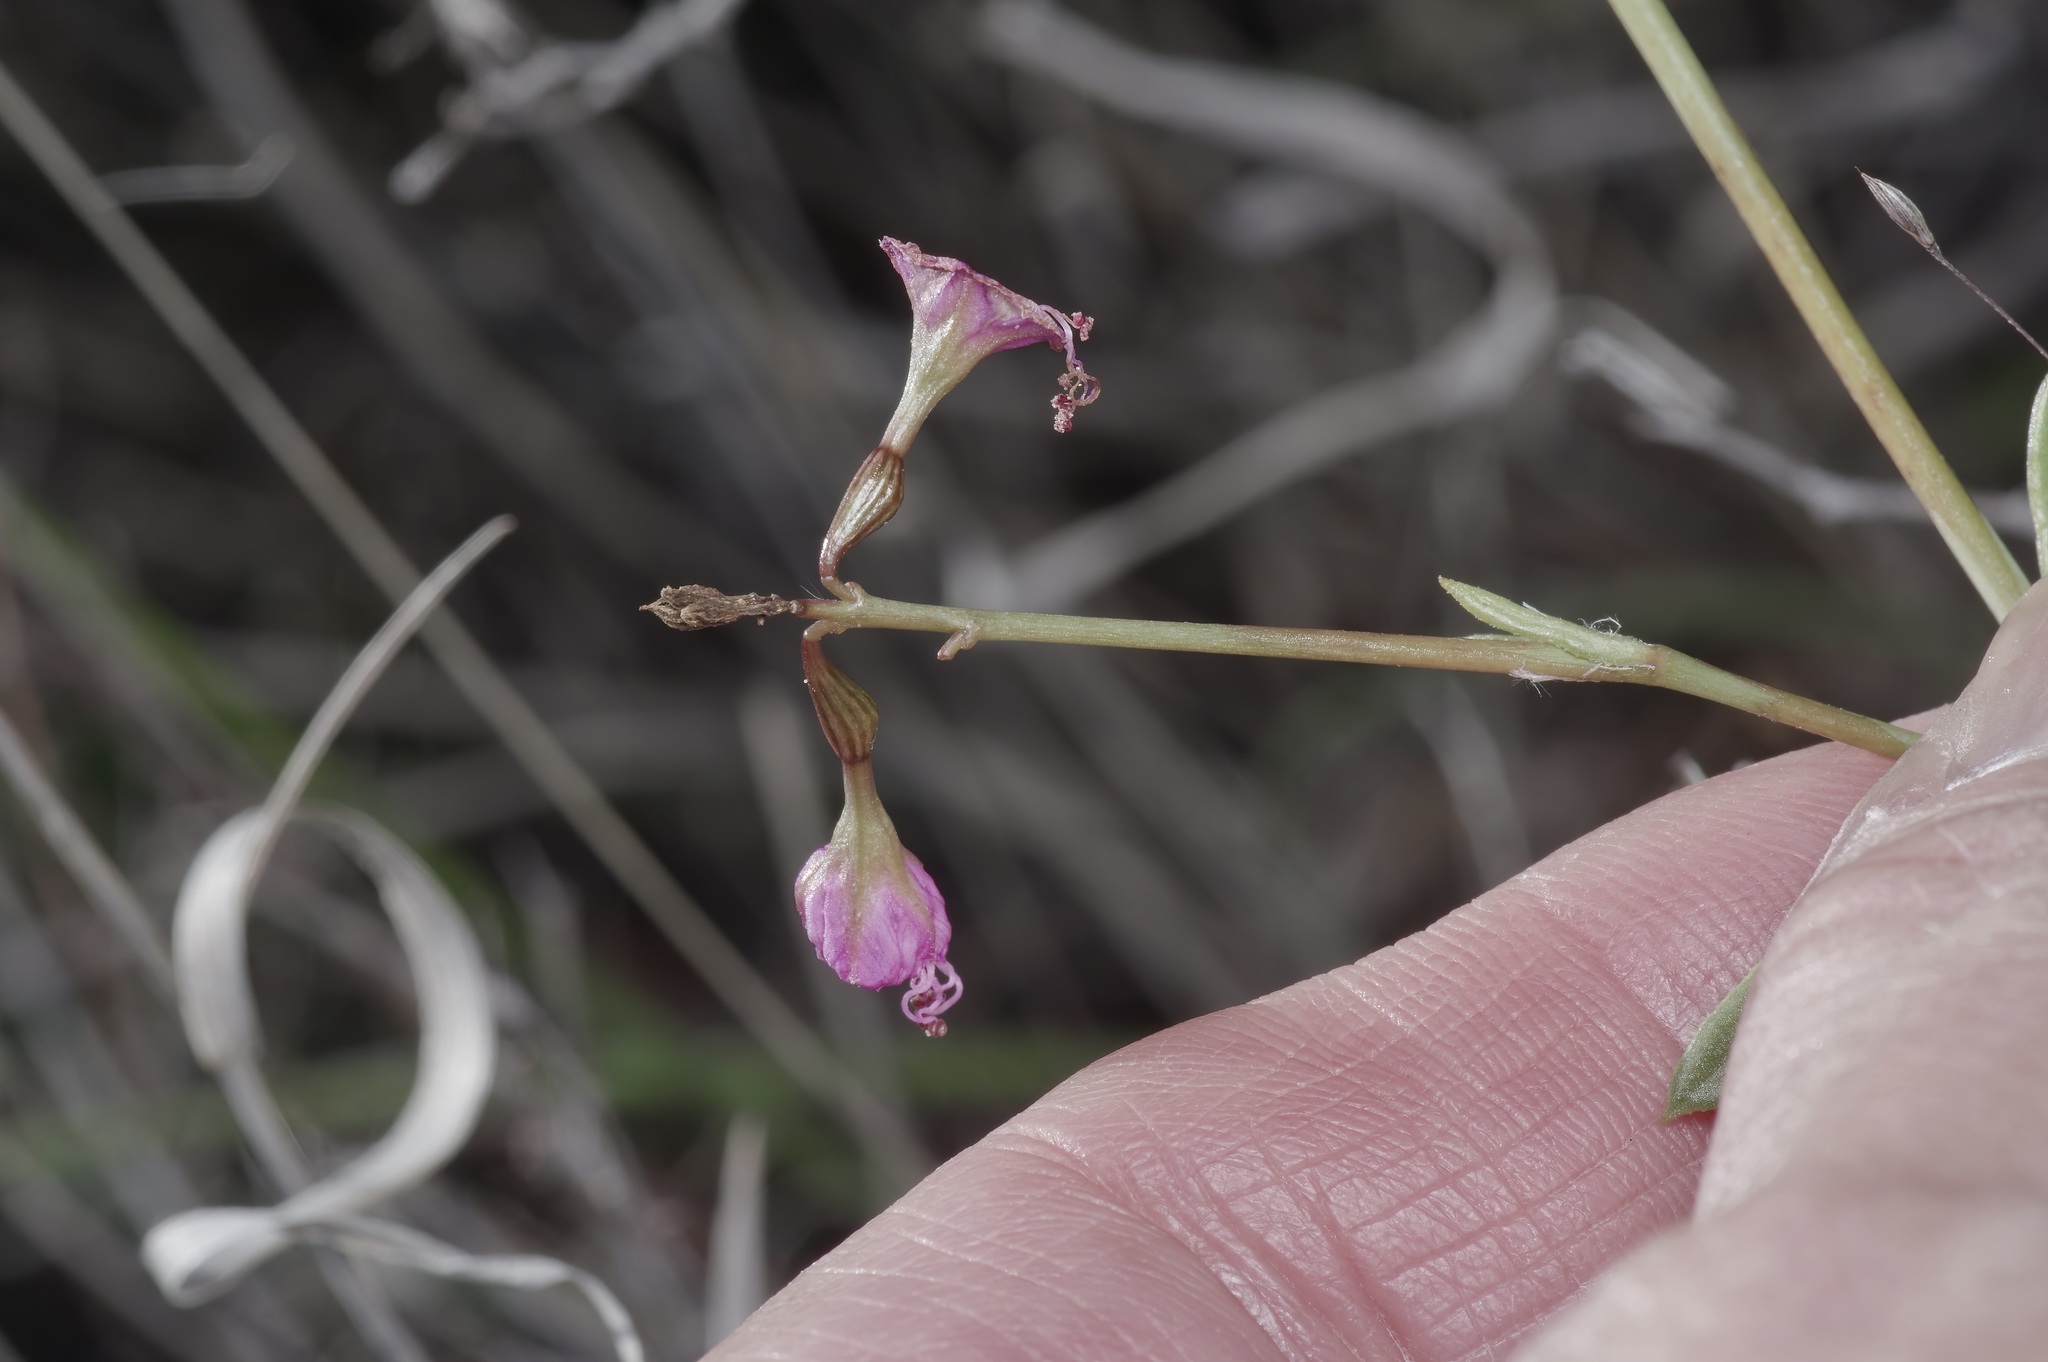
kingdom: Plantae
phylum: Tracheophyta
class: Magnoliopsida
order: Caryophyllales
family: Nyctaginaceae
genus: Cyphomeris
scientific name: Cyphomeris gypsophiloides
